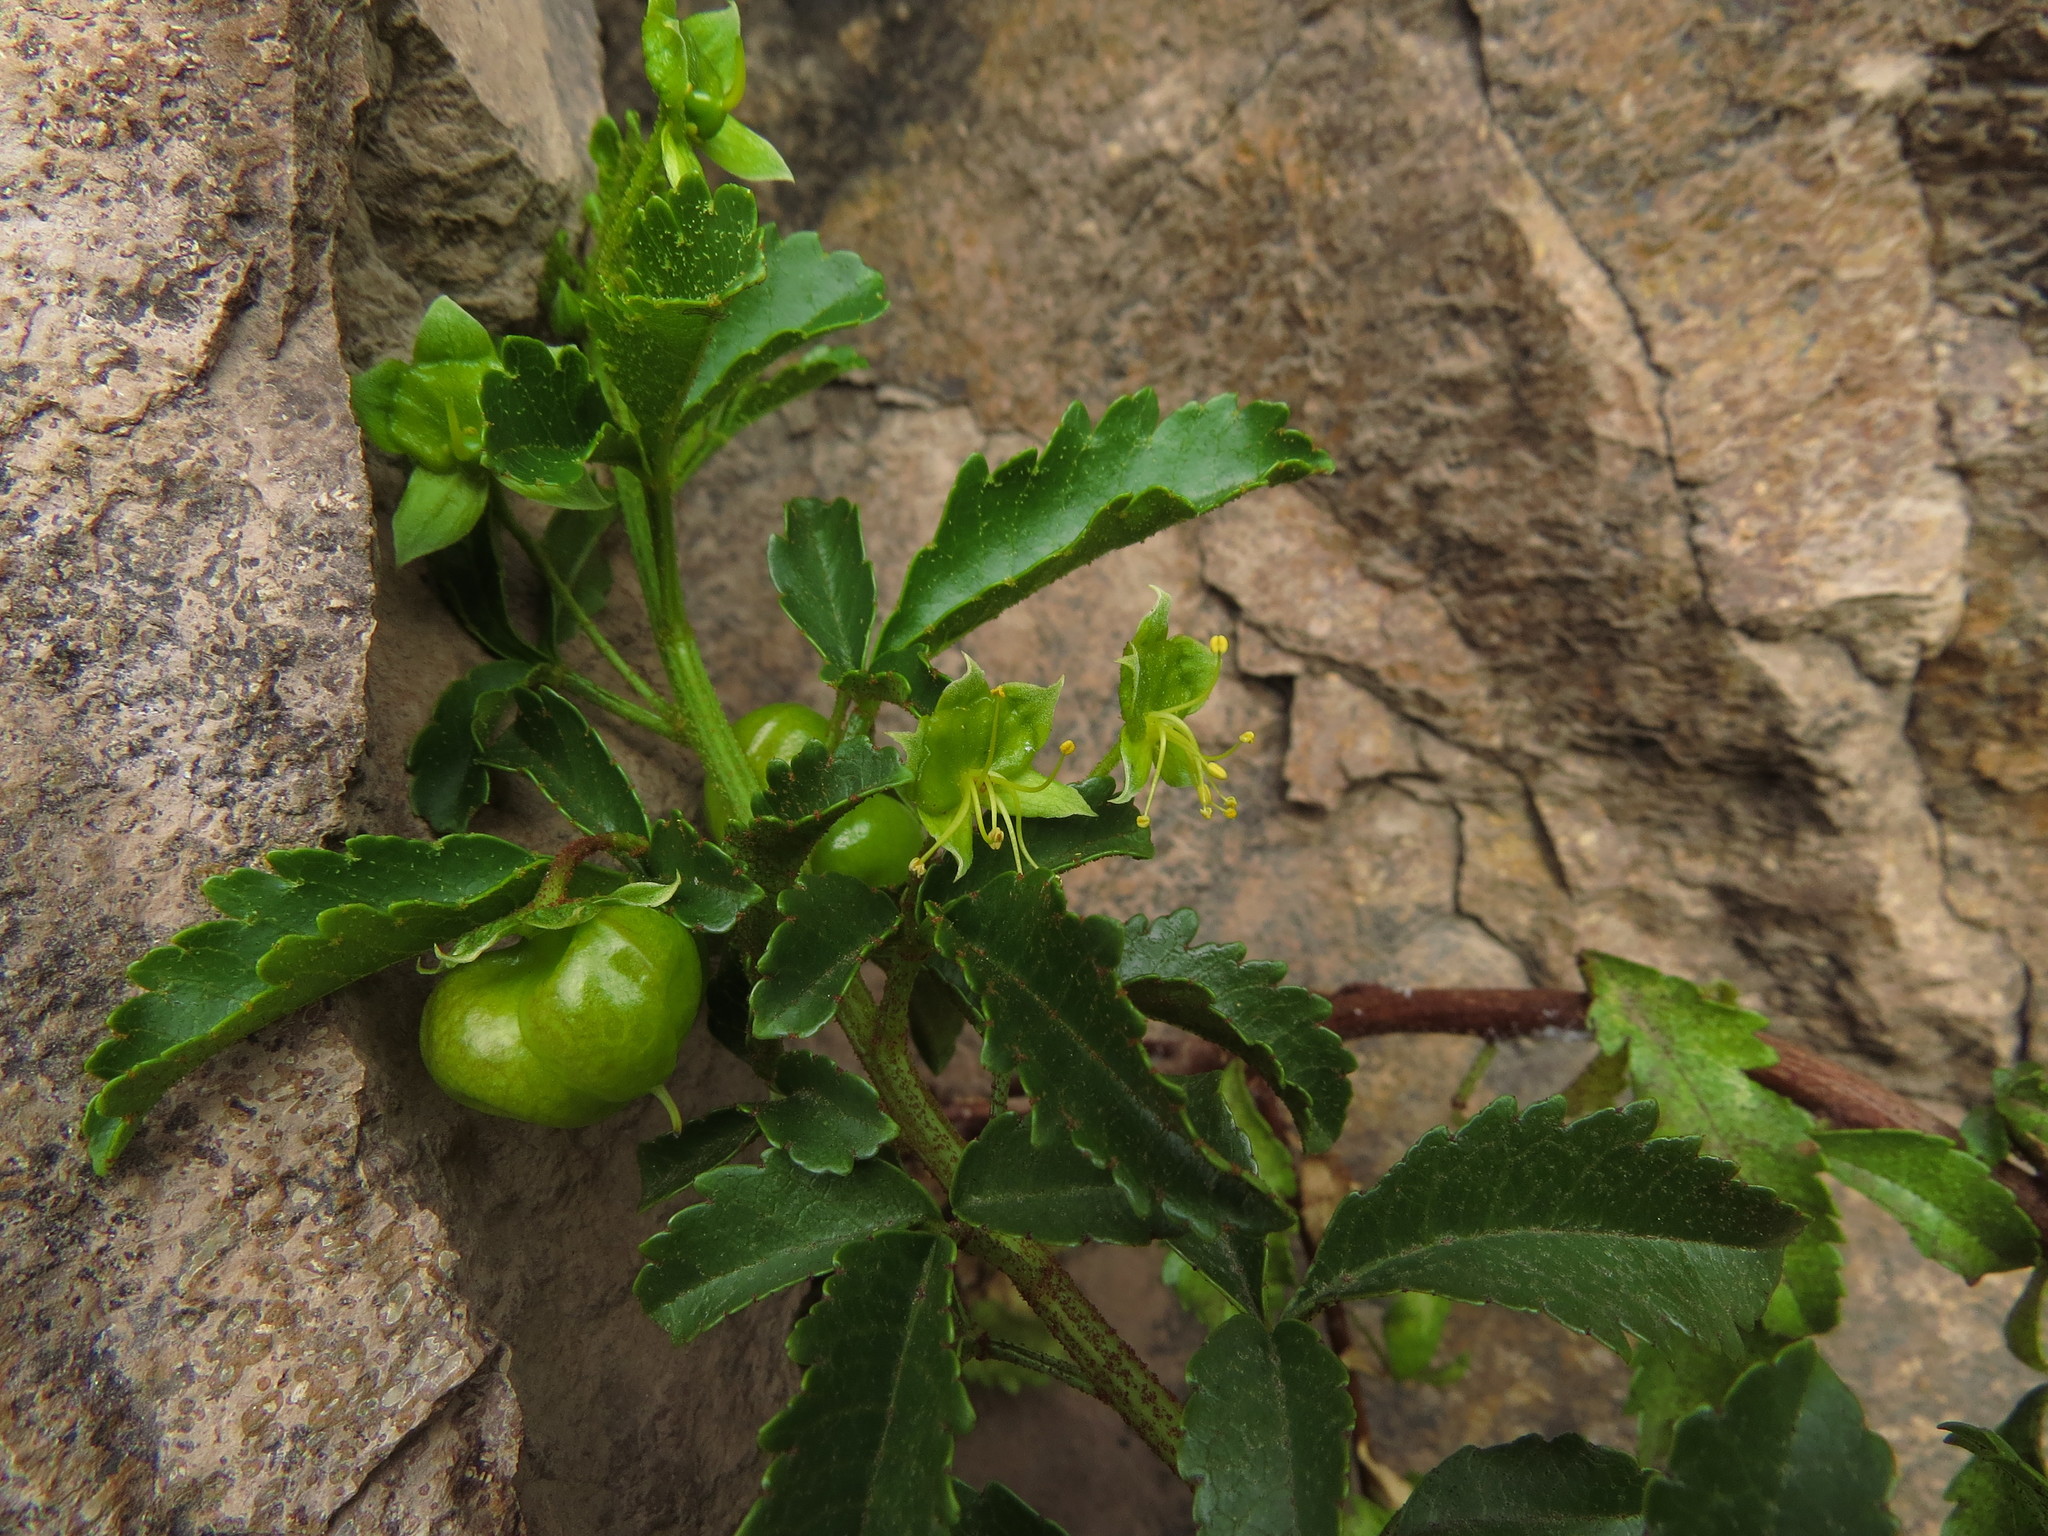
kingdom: Plantae
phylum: Tracheophyta
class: Magnoliopsida
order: Sapindales
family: Sapindaceae
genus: Llagunoa
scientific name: Llagunoa glandulosa
